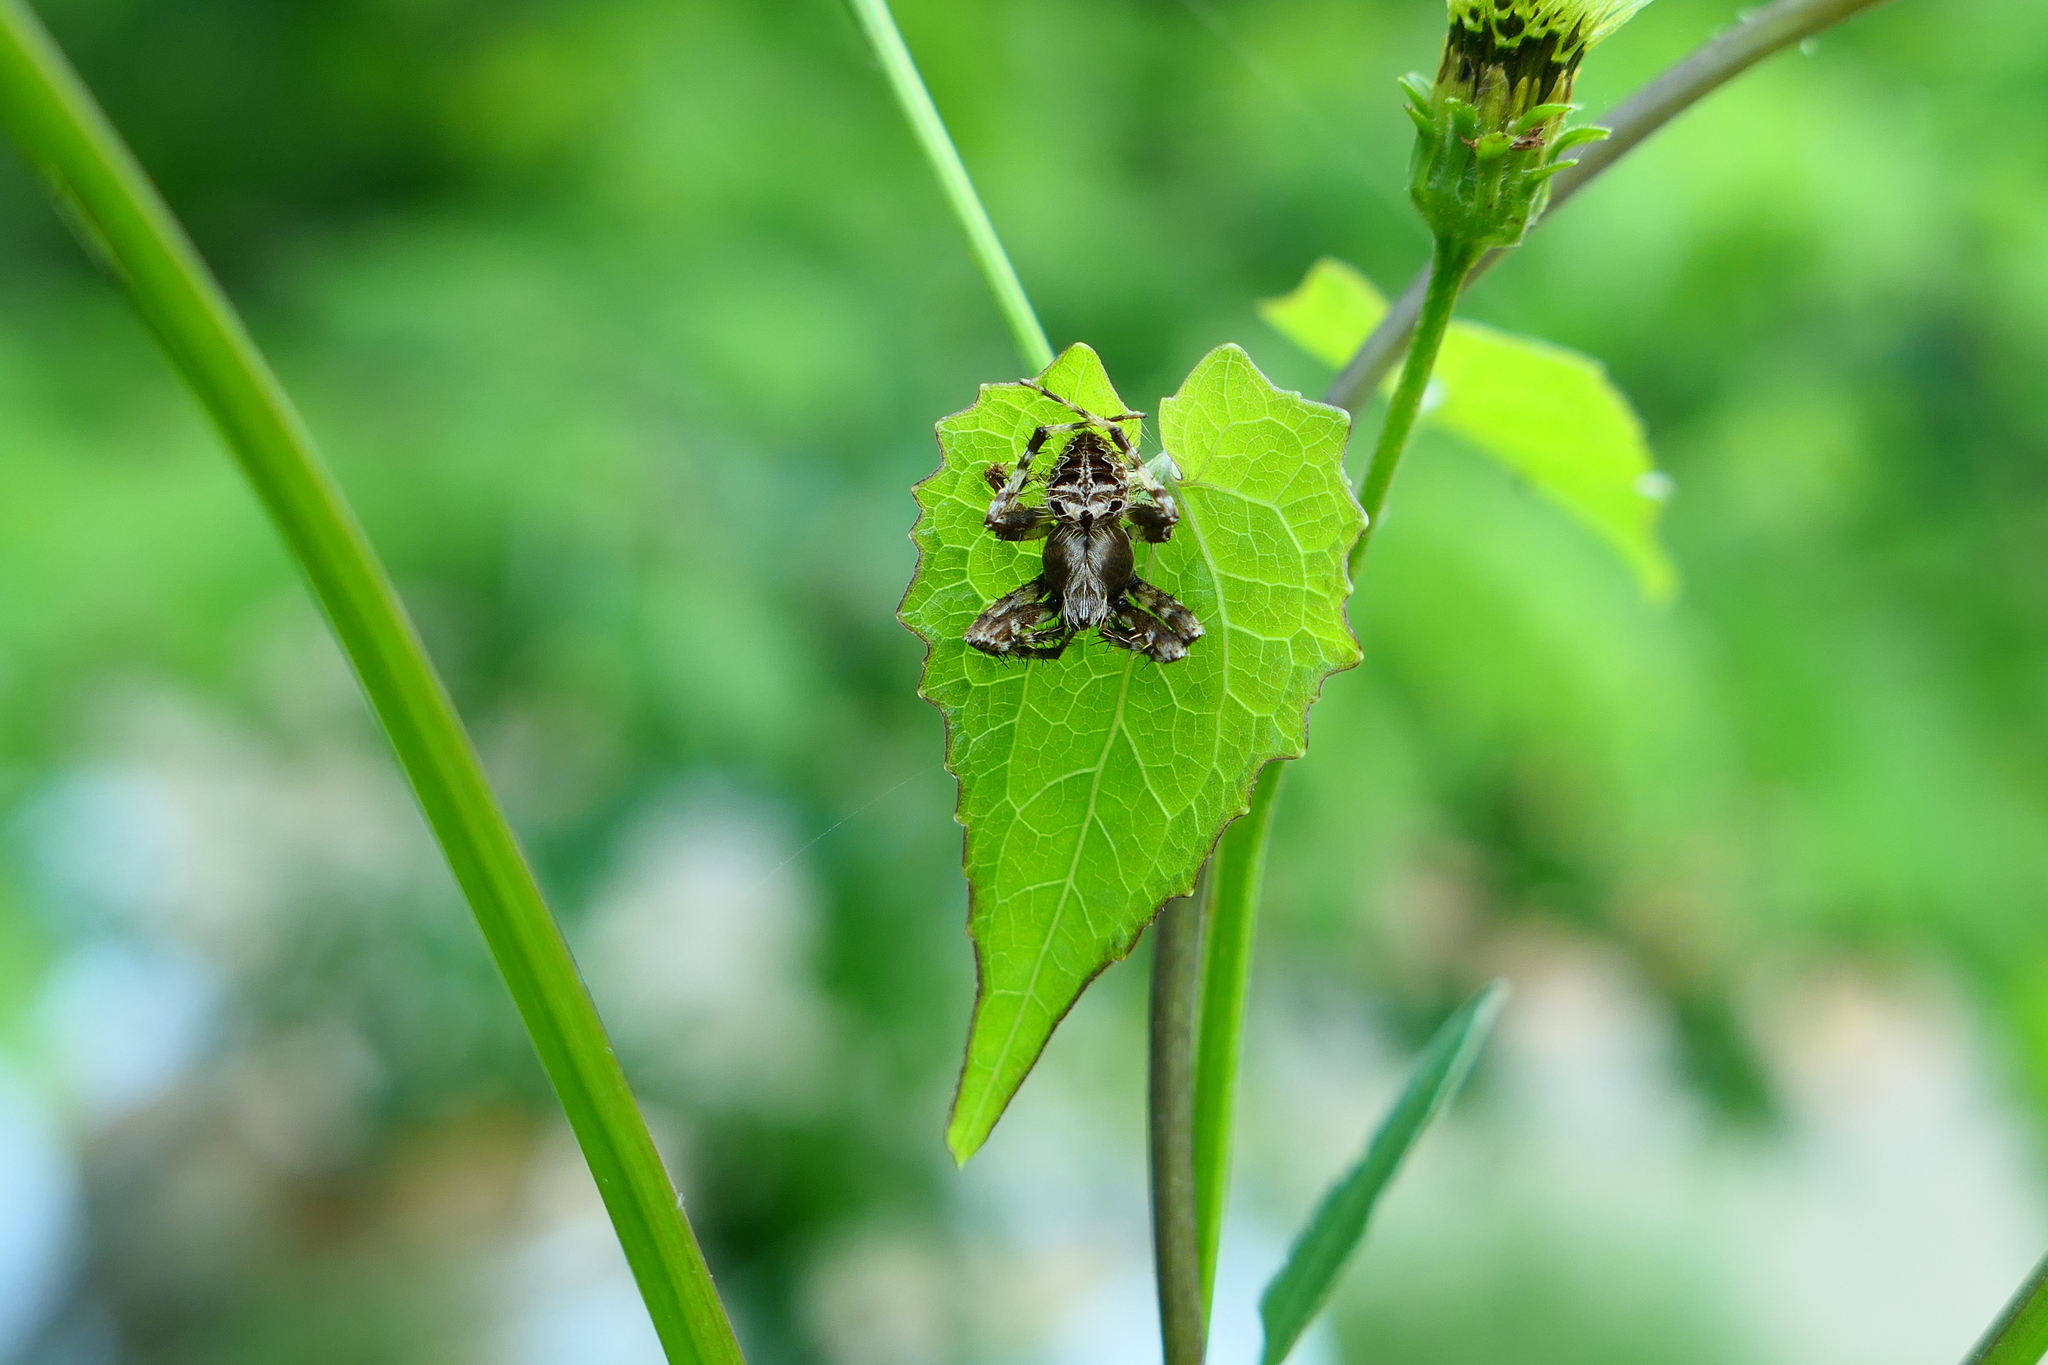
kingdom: Animalia
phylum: Arthropoda
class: Arachnida
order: Araneae
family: Araneidae
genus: Neoscona
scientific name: Neoscona punctigera
